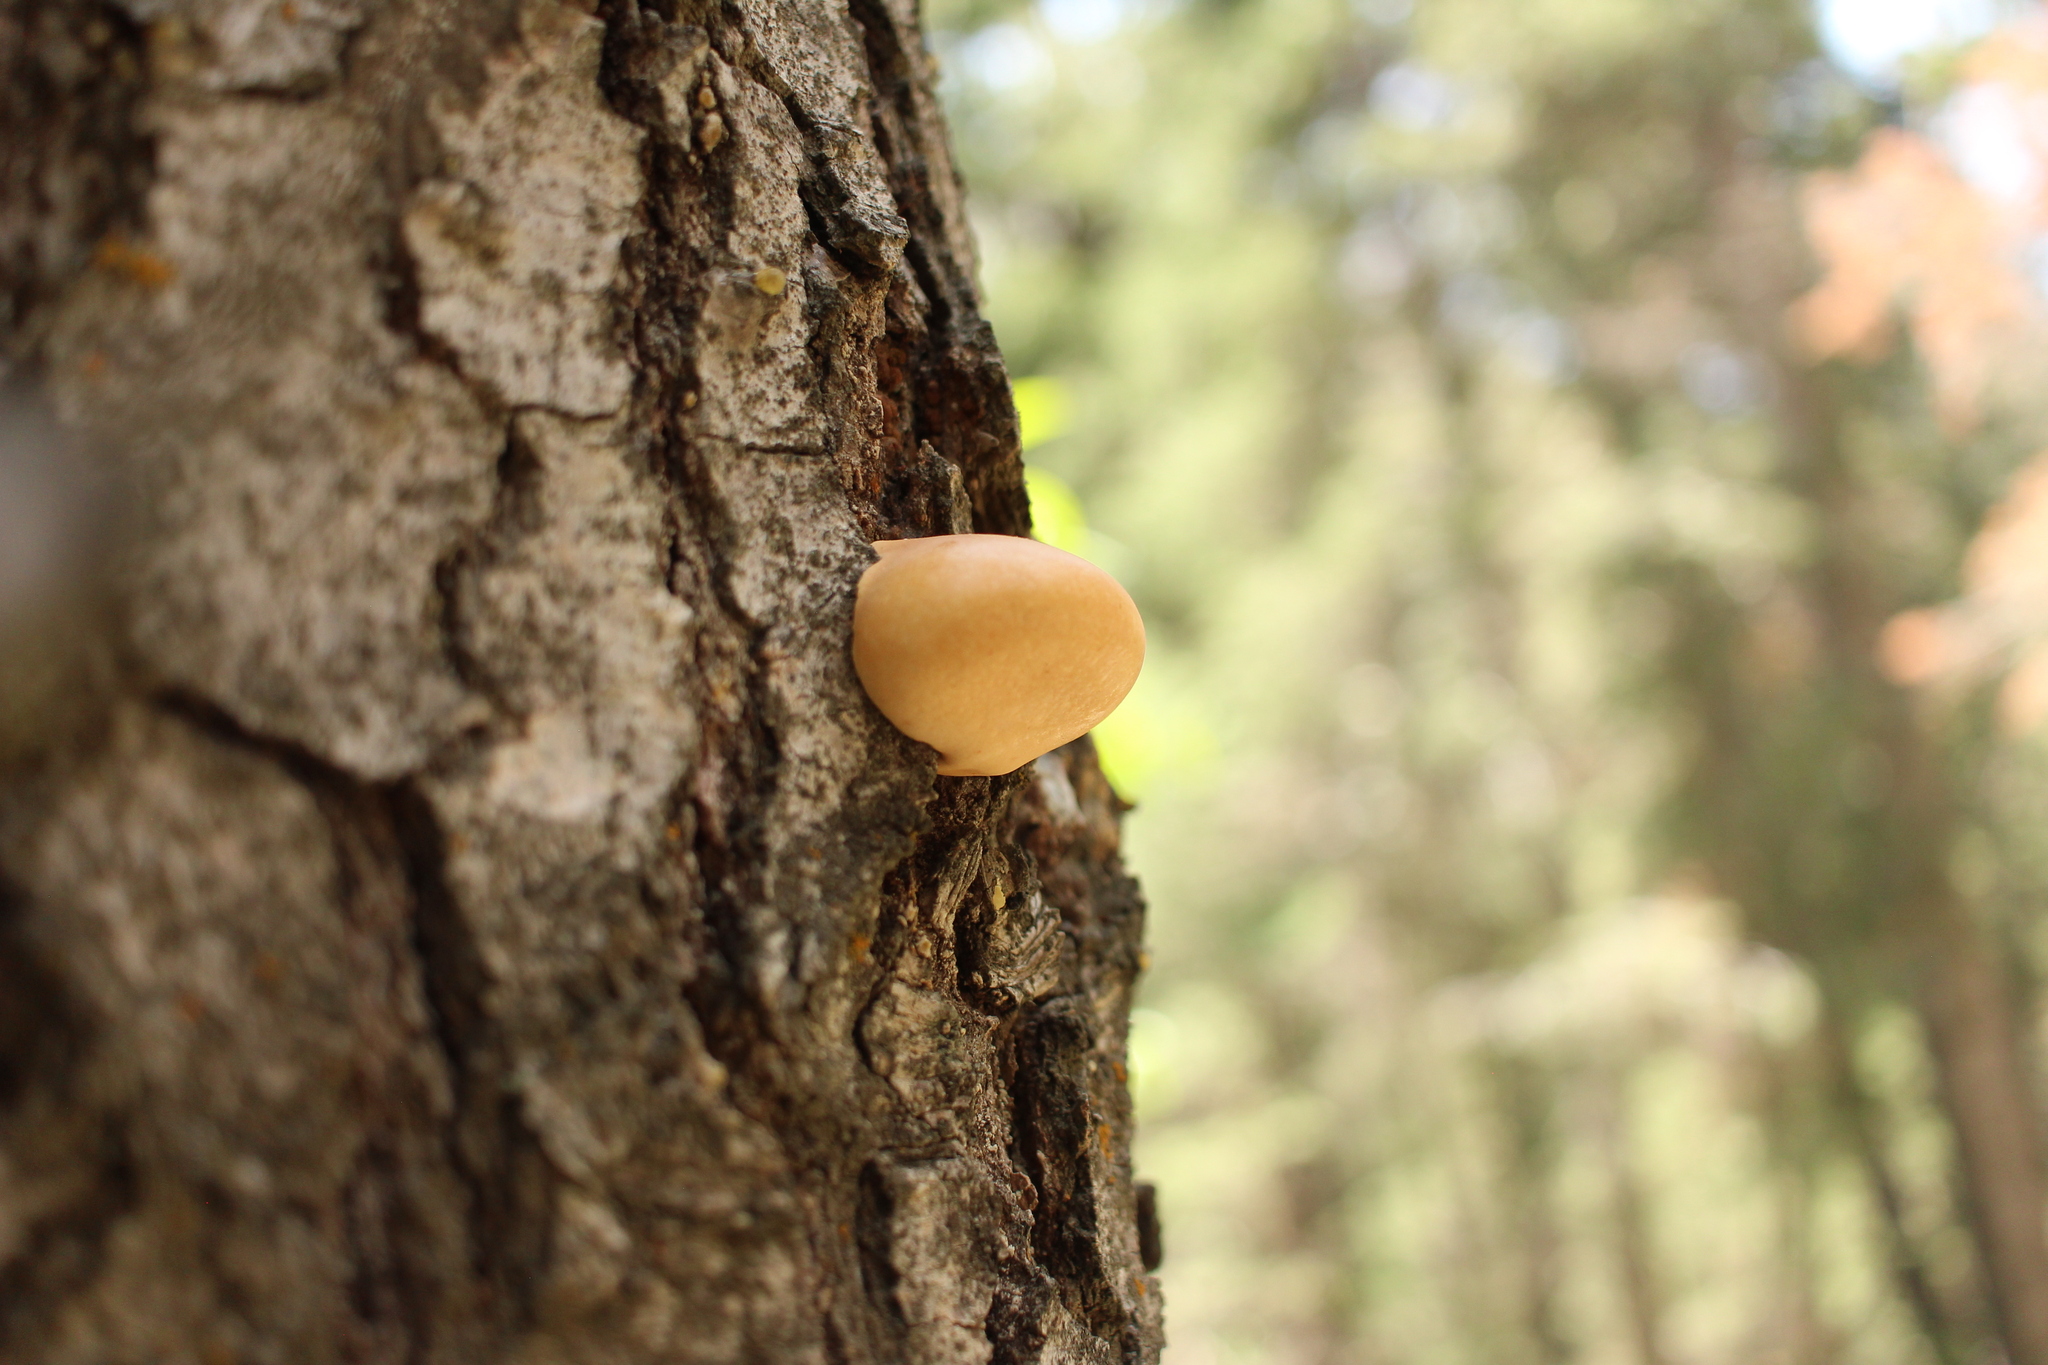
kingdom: Fungi
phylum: Basidiomycota
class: Agaricomycetes
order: Polyporales
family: Polyporaceae
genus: Cryptoporus
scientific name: Cryptoporus volvatus
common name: Veiled polypore
